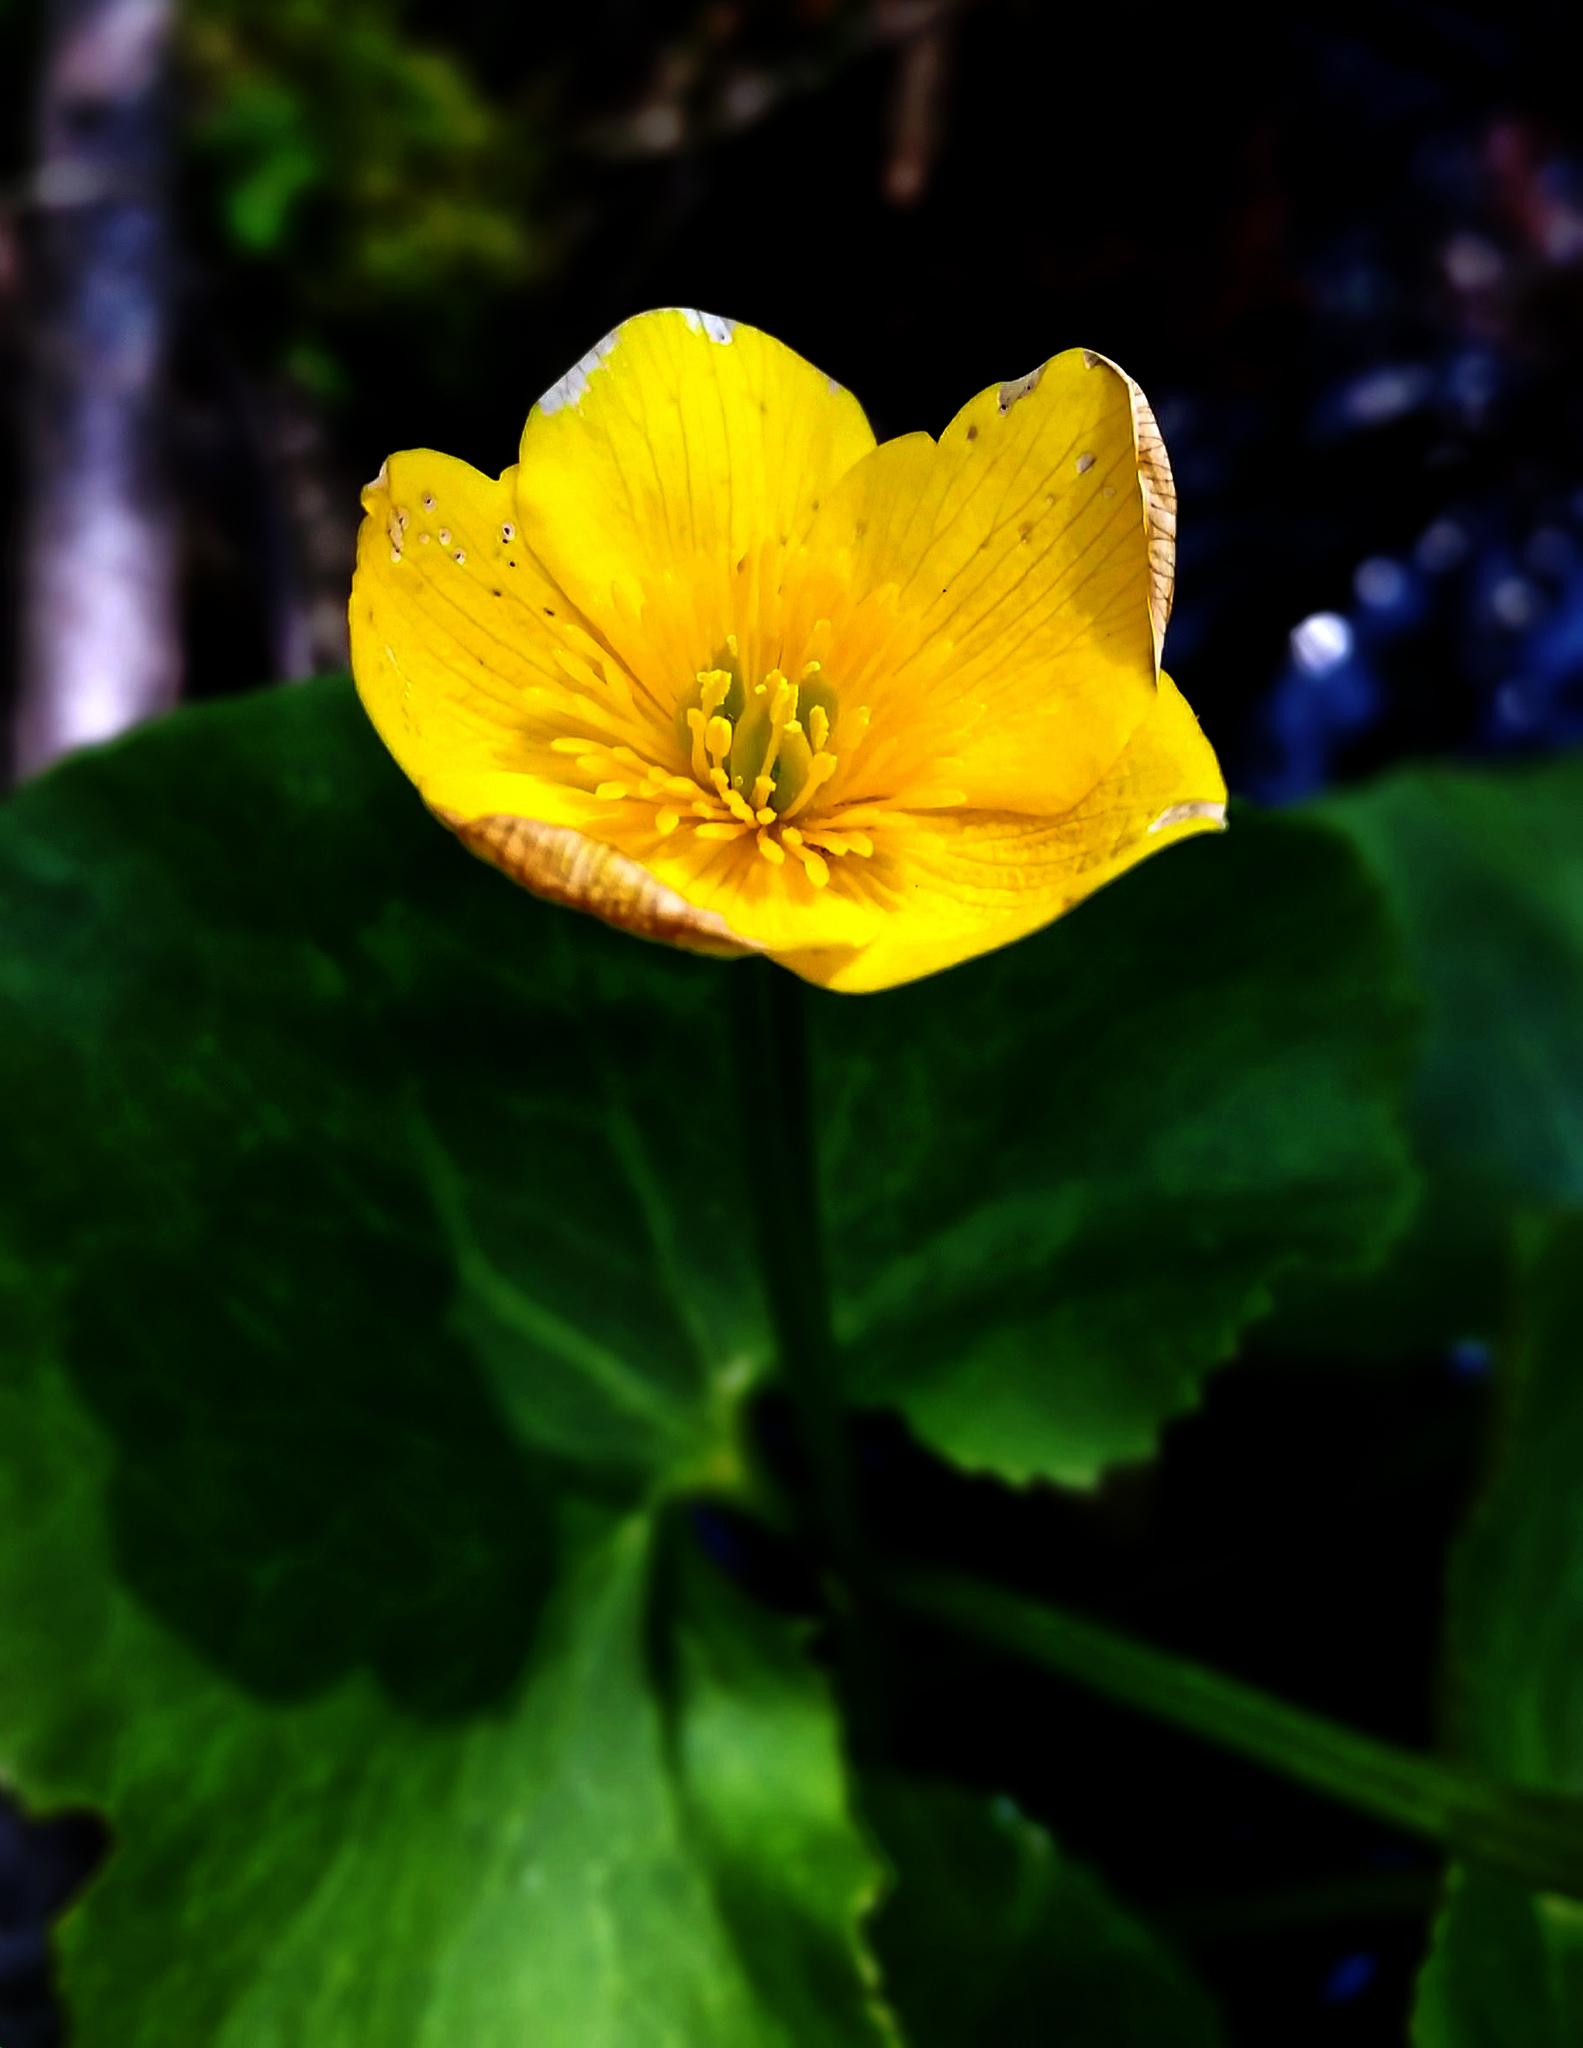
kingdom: Plantae
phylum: Tracheophyta
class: Magnoliopsida
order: Ranunculales
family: Ranunculaceae
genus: Caltha
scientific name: Caltha palustris
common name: Marsh marigold
